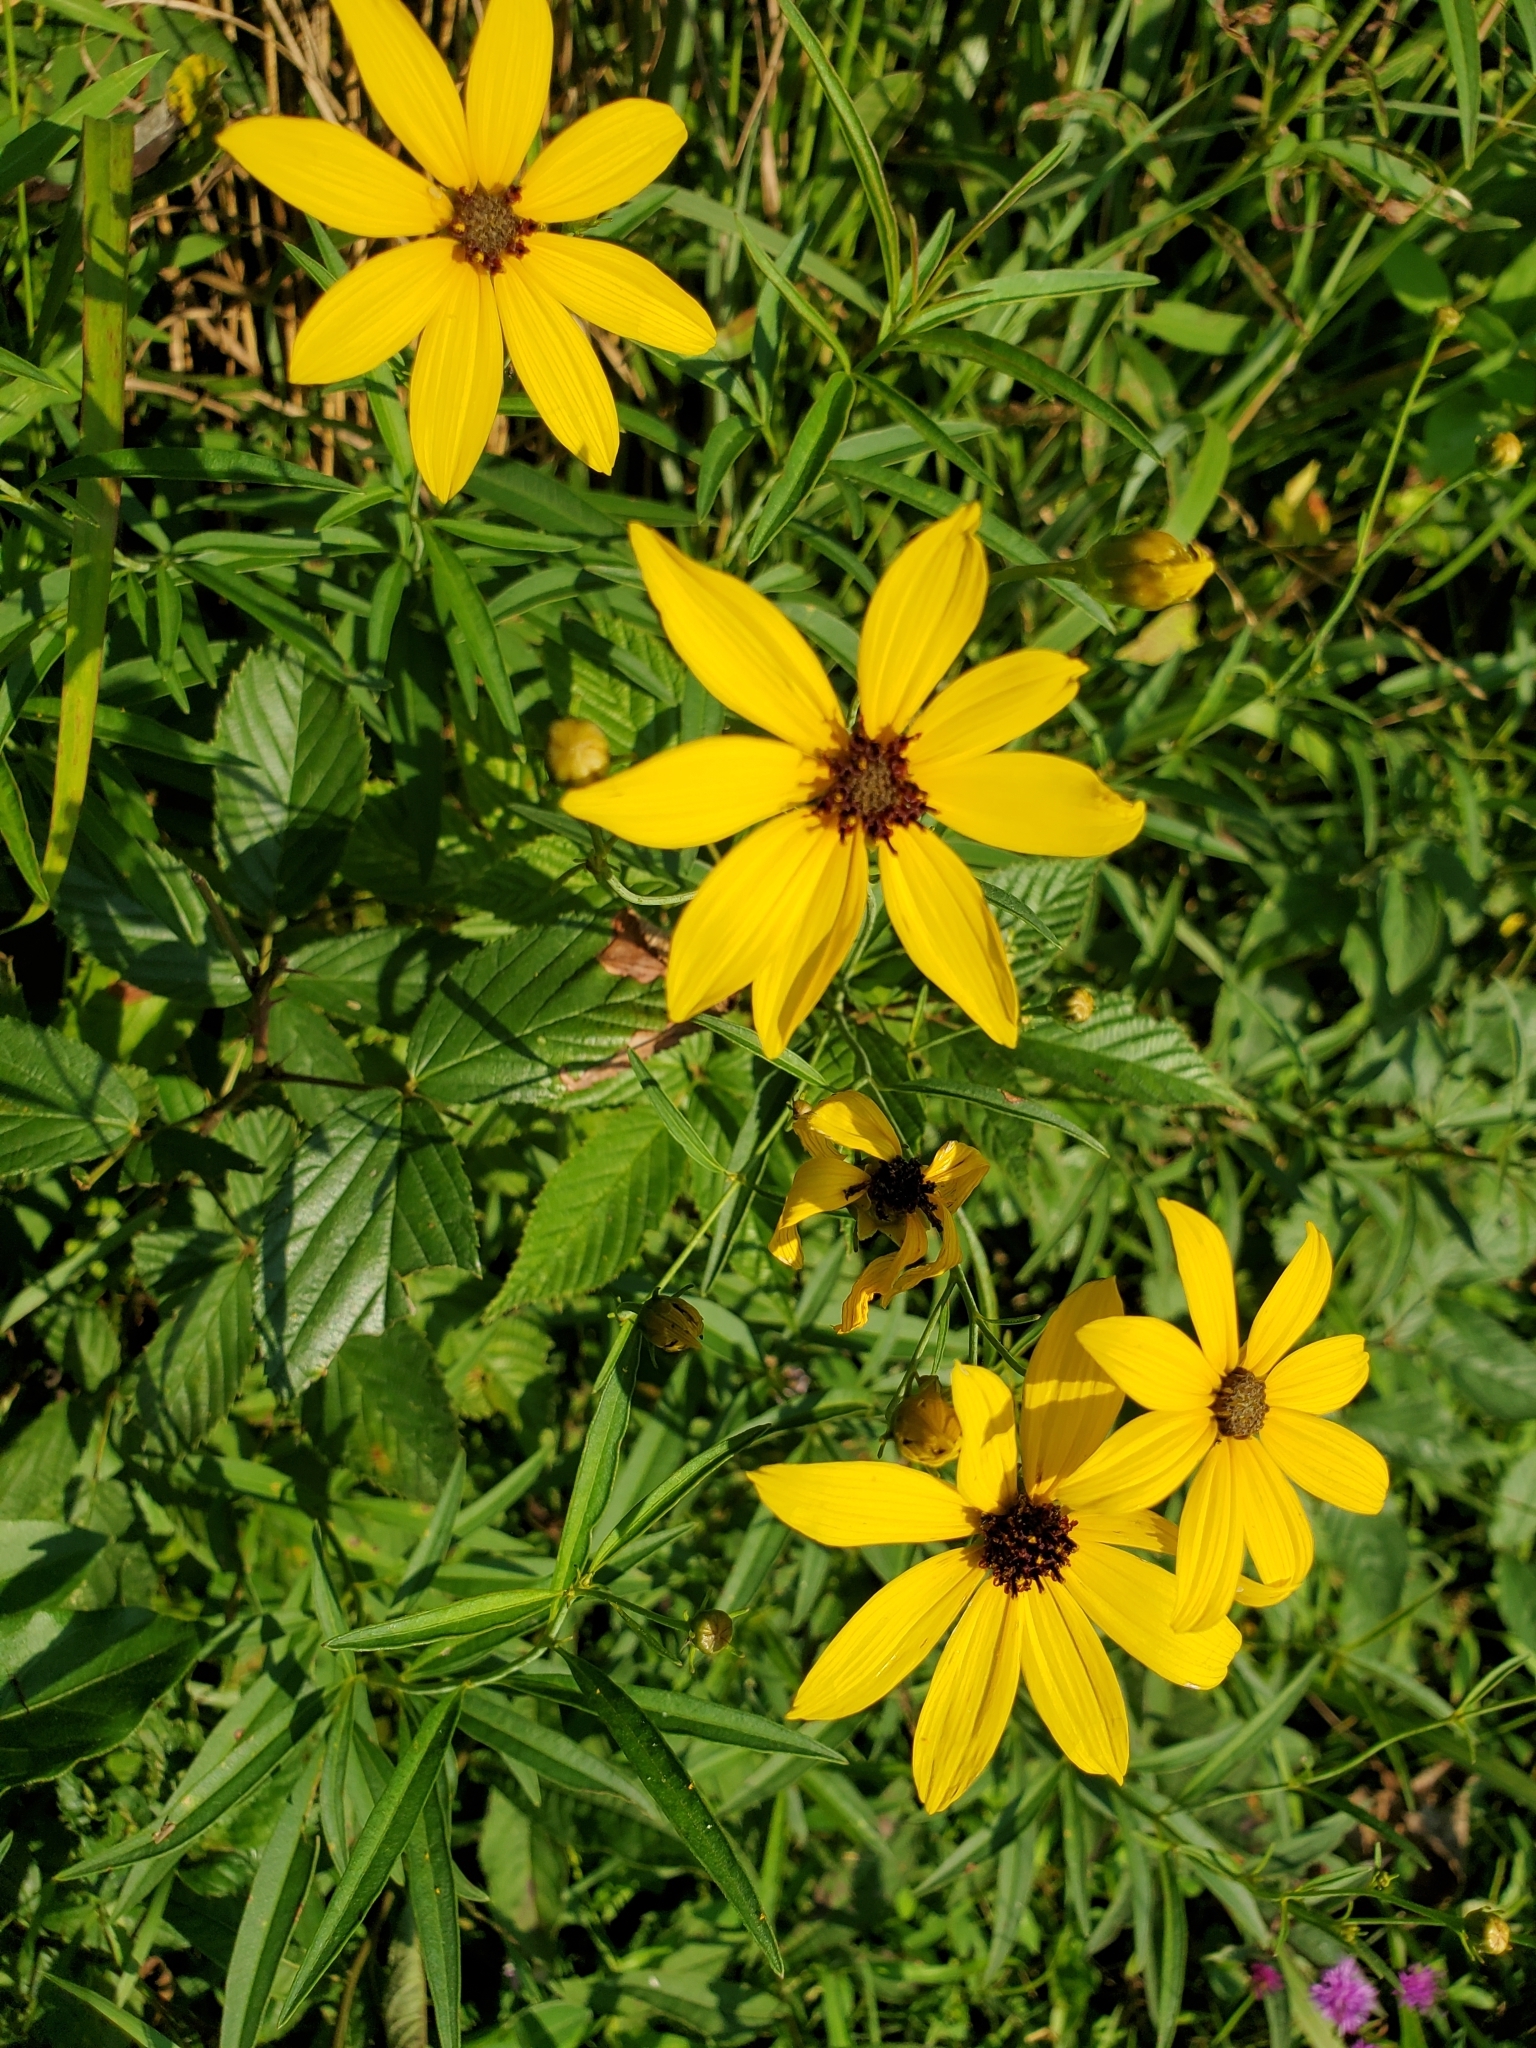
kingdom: Plantae
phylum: Tracheophyta
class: Magnoliopsida
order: Asterales
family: Asteraceae
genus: Coreopsis
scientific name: Coreopsis tripteris
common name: Tall coreopsis
